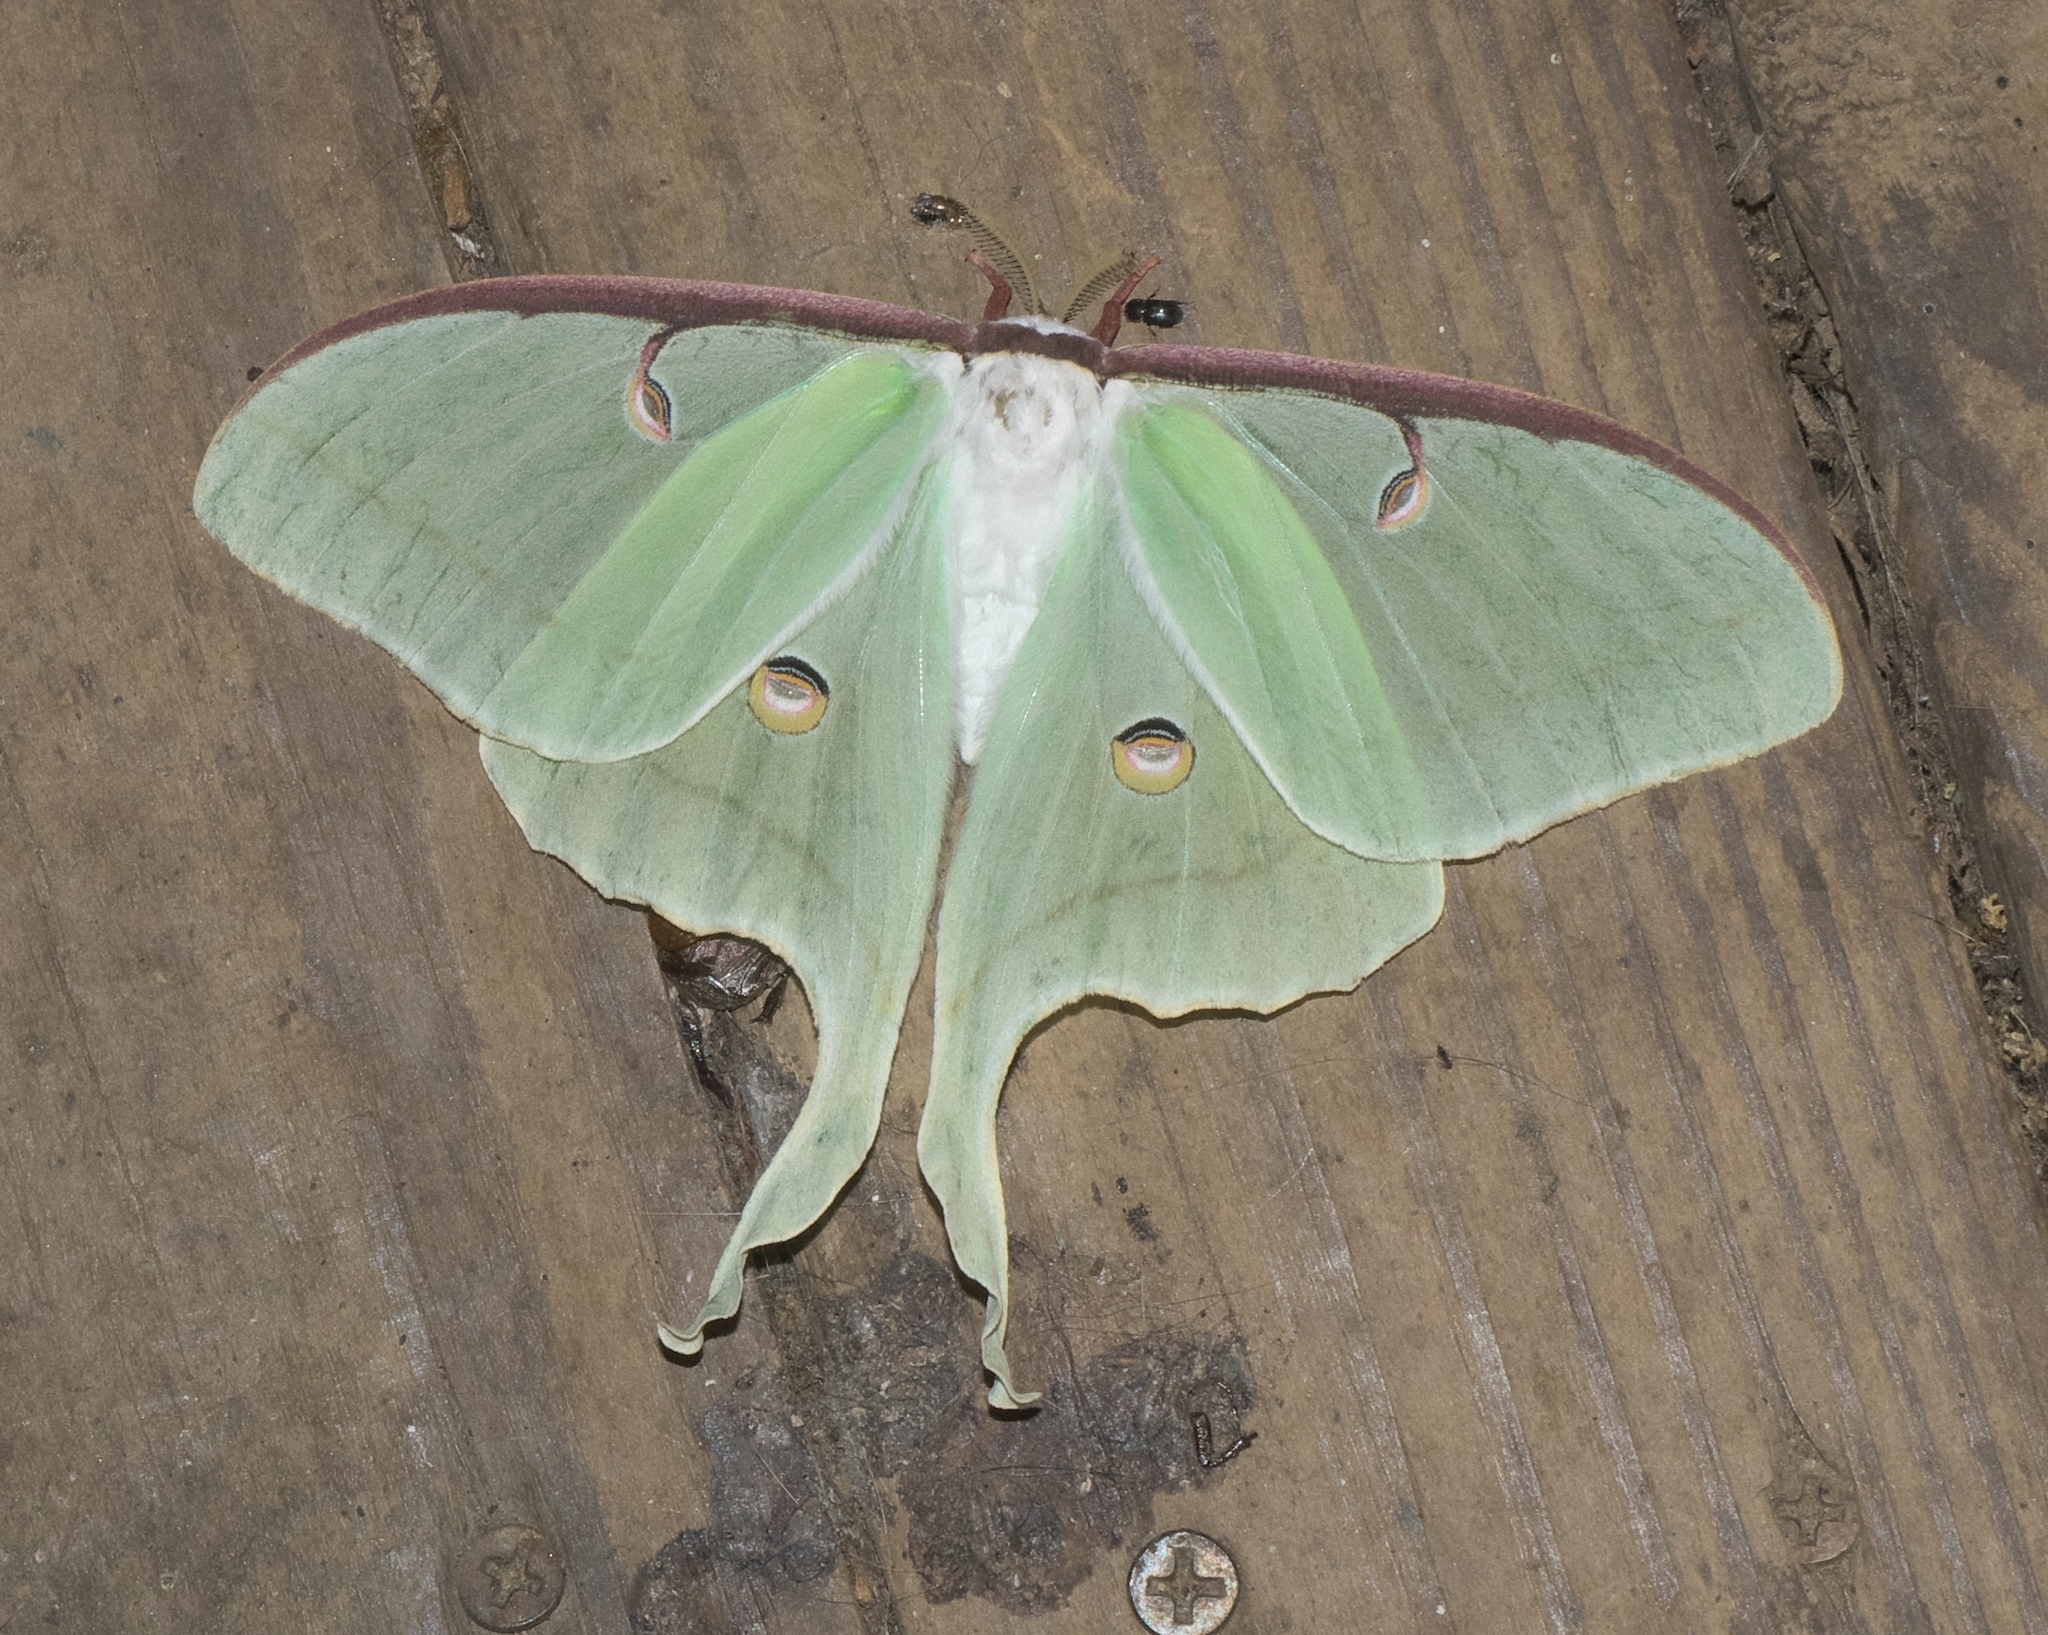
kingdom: Animalia
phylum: Arthropoda
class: Insecta
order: Lepidoptera
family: Saturniidae
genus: Actias
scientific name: Actias luna
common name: Luna moth
